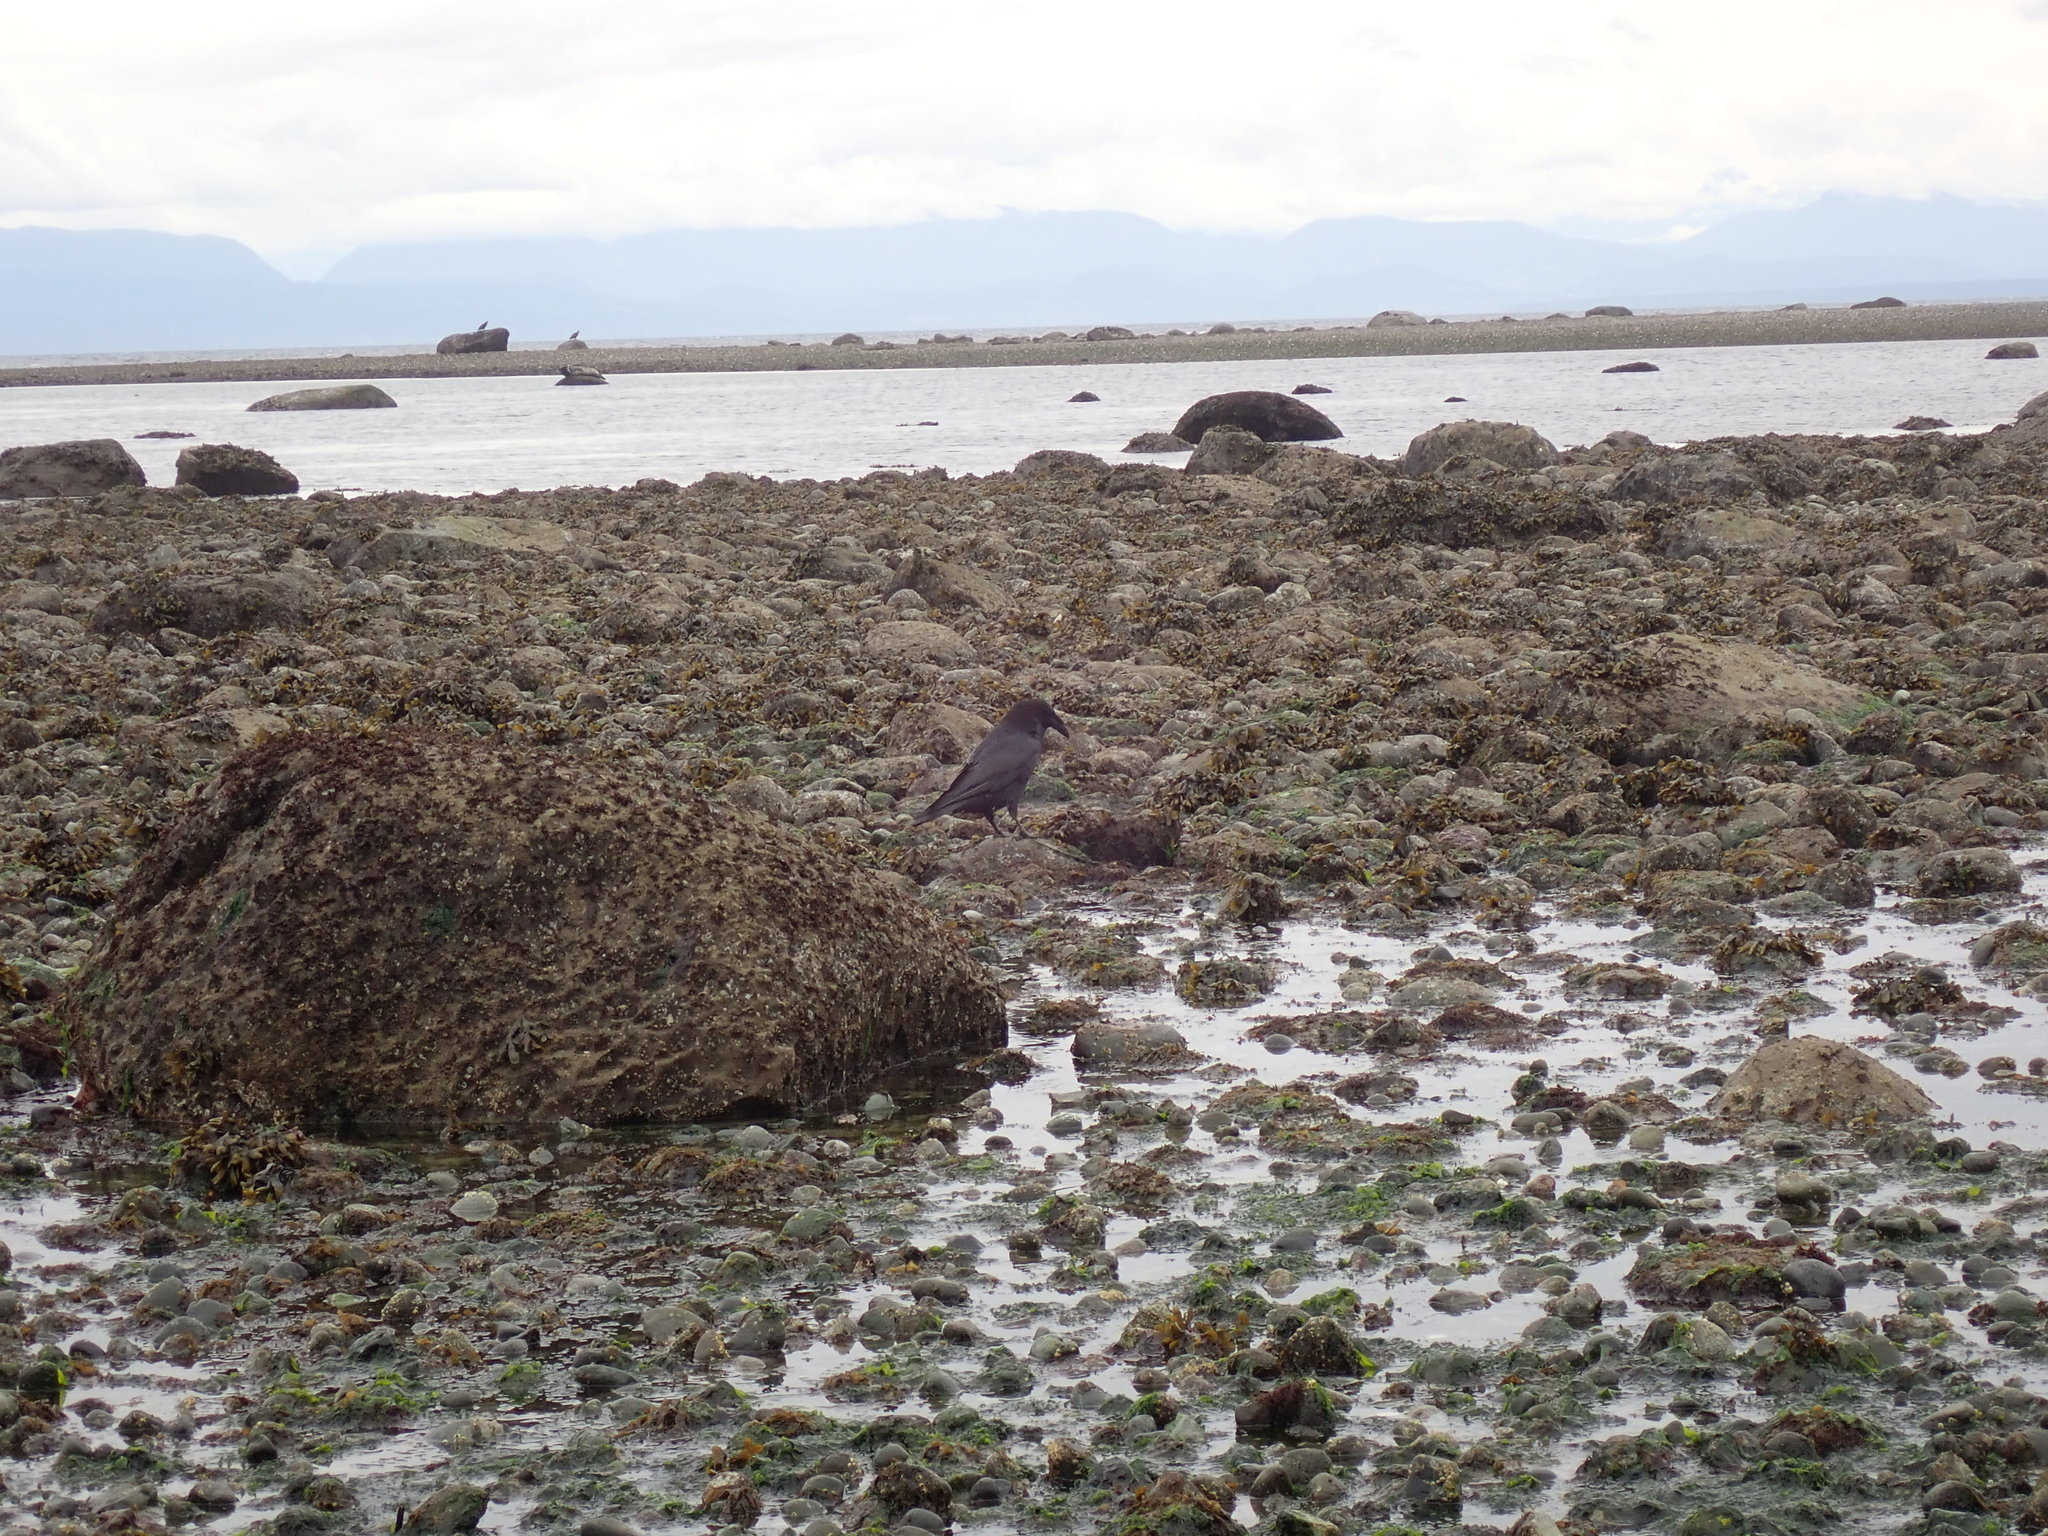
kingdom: Animalia
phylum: Chordata
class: Aves
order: Passeriformes
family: Corvidae
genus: Corvus
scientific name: Corvus corax
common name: Common raven
